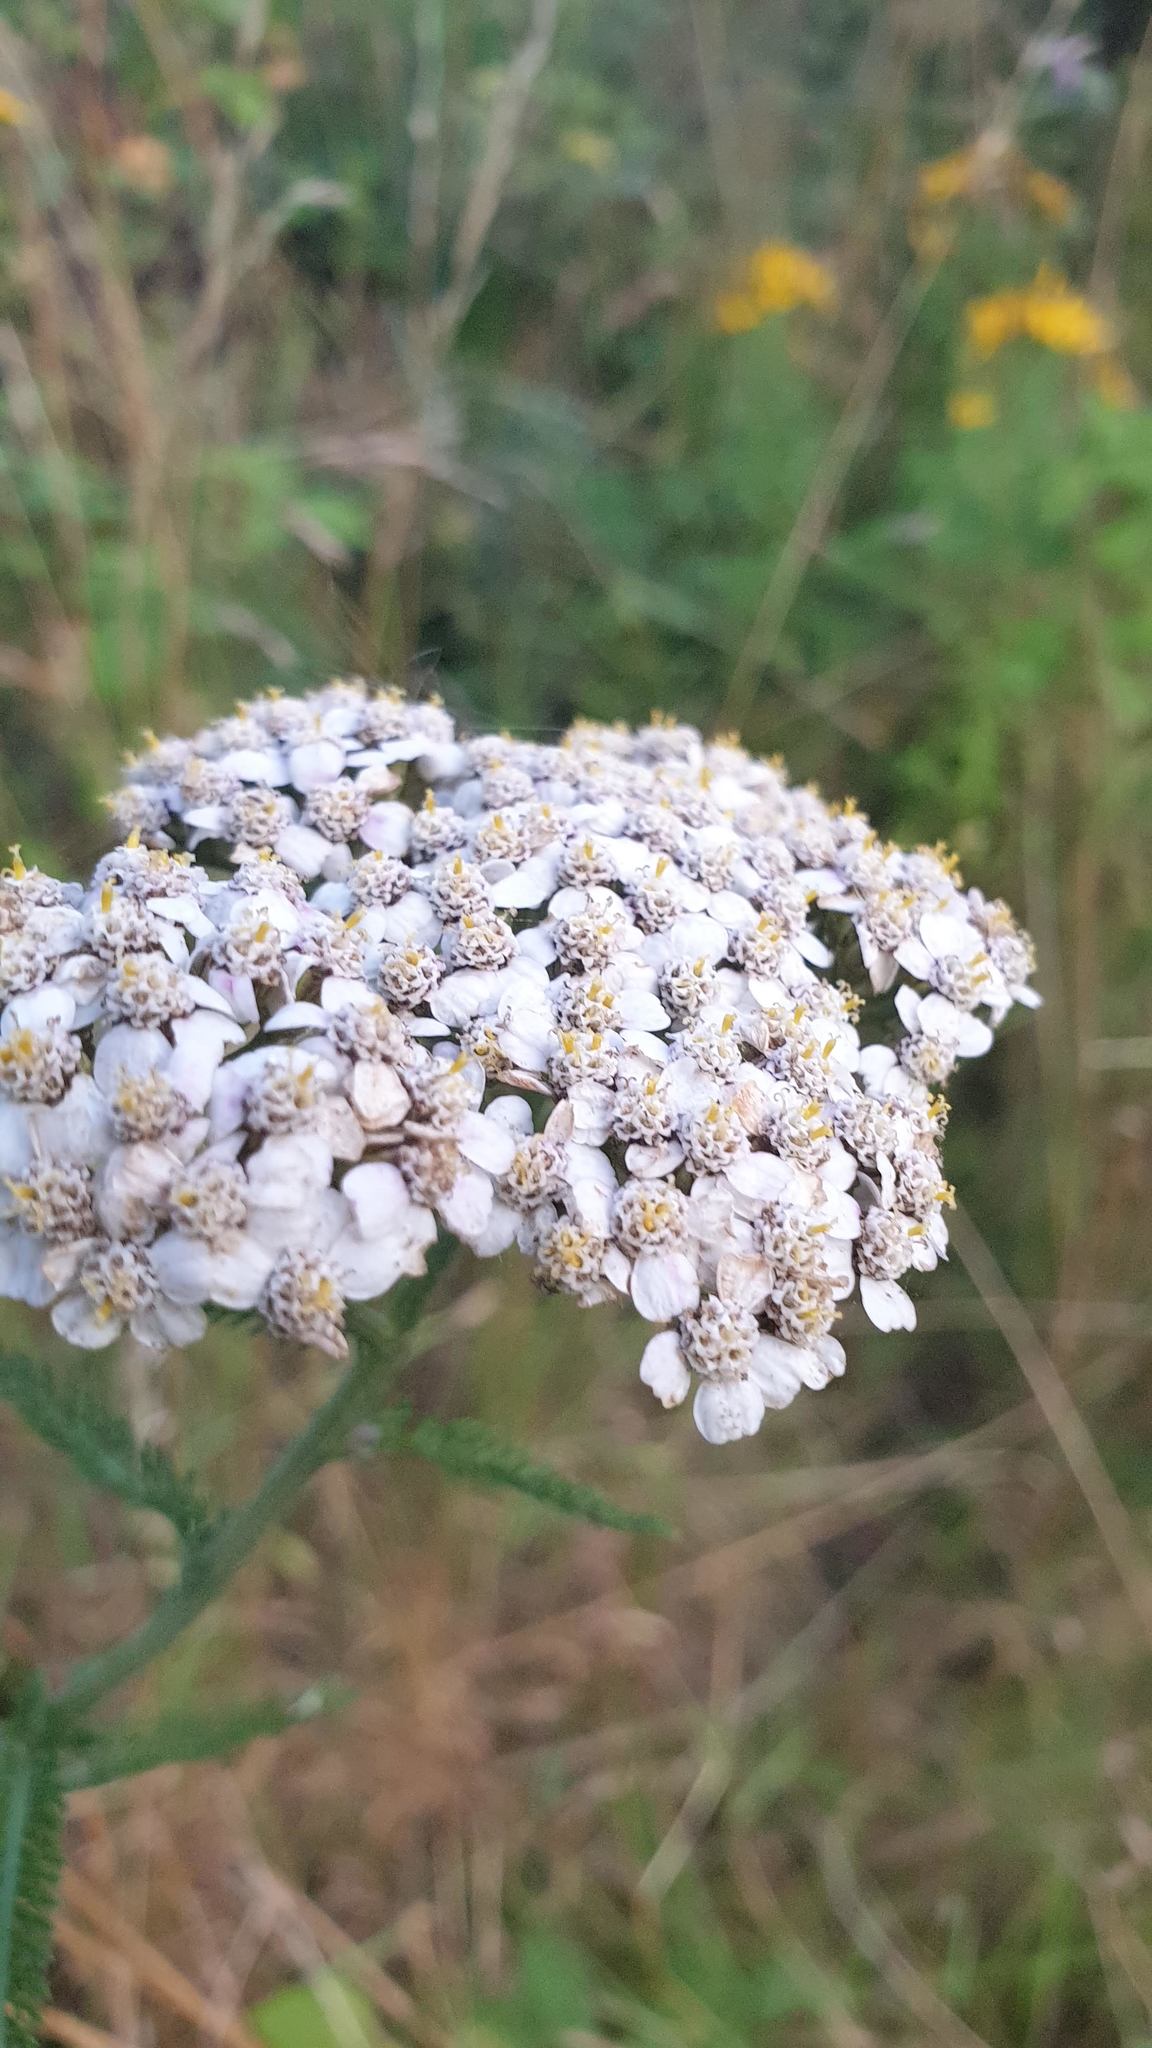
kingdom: Plantae
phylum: Tracheophyta
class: Magnoliopsida
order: Asterales
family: Asteraceae
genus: Achillea
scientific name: Achillea millefolium
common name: Yarrow
